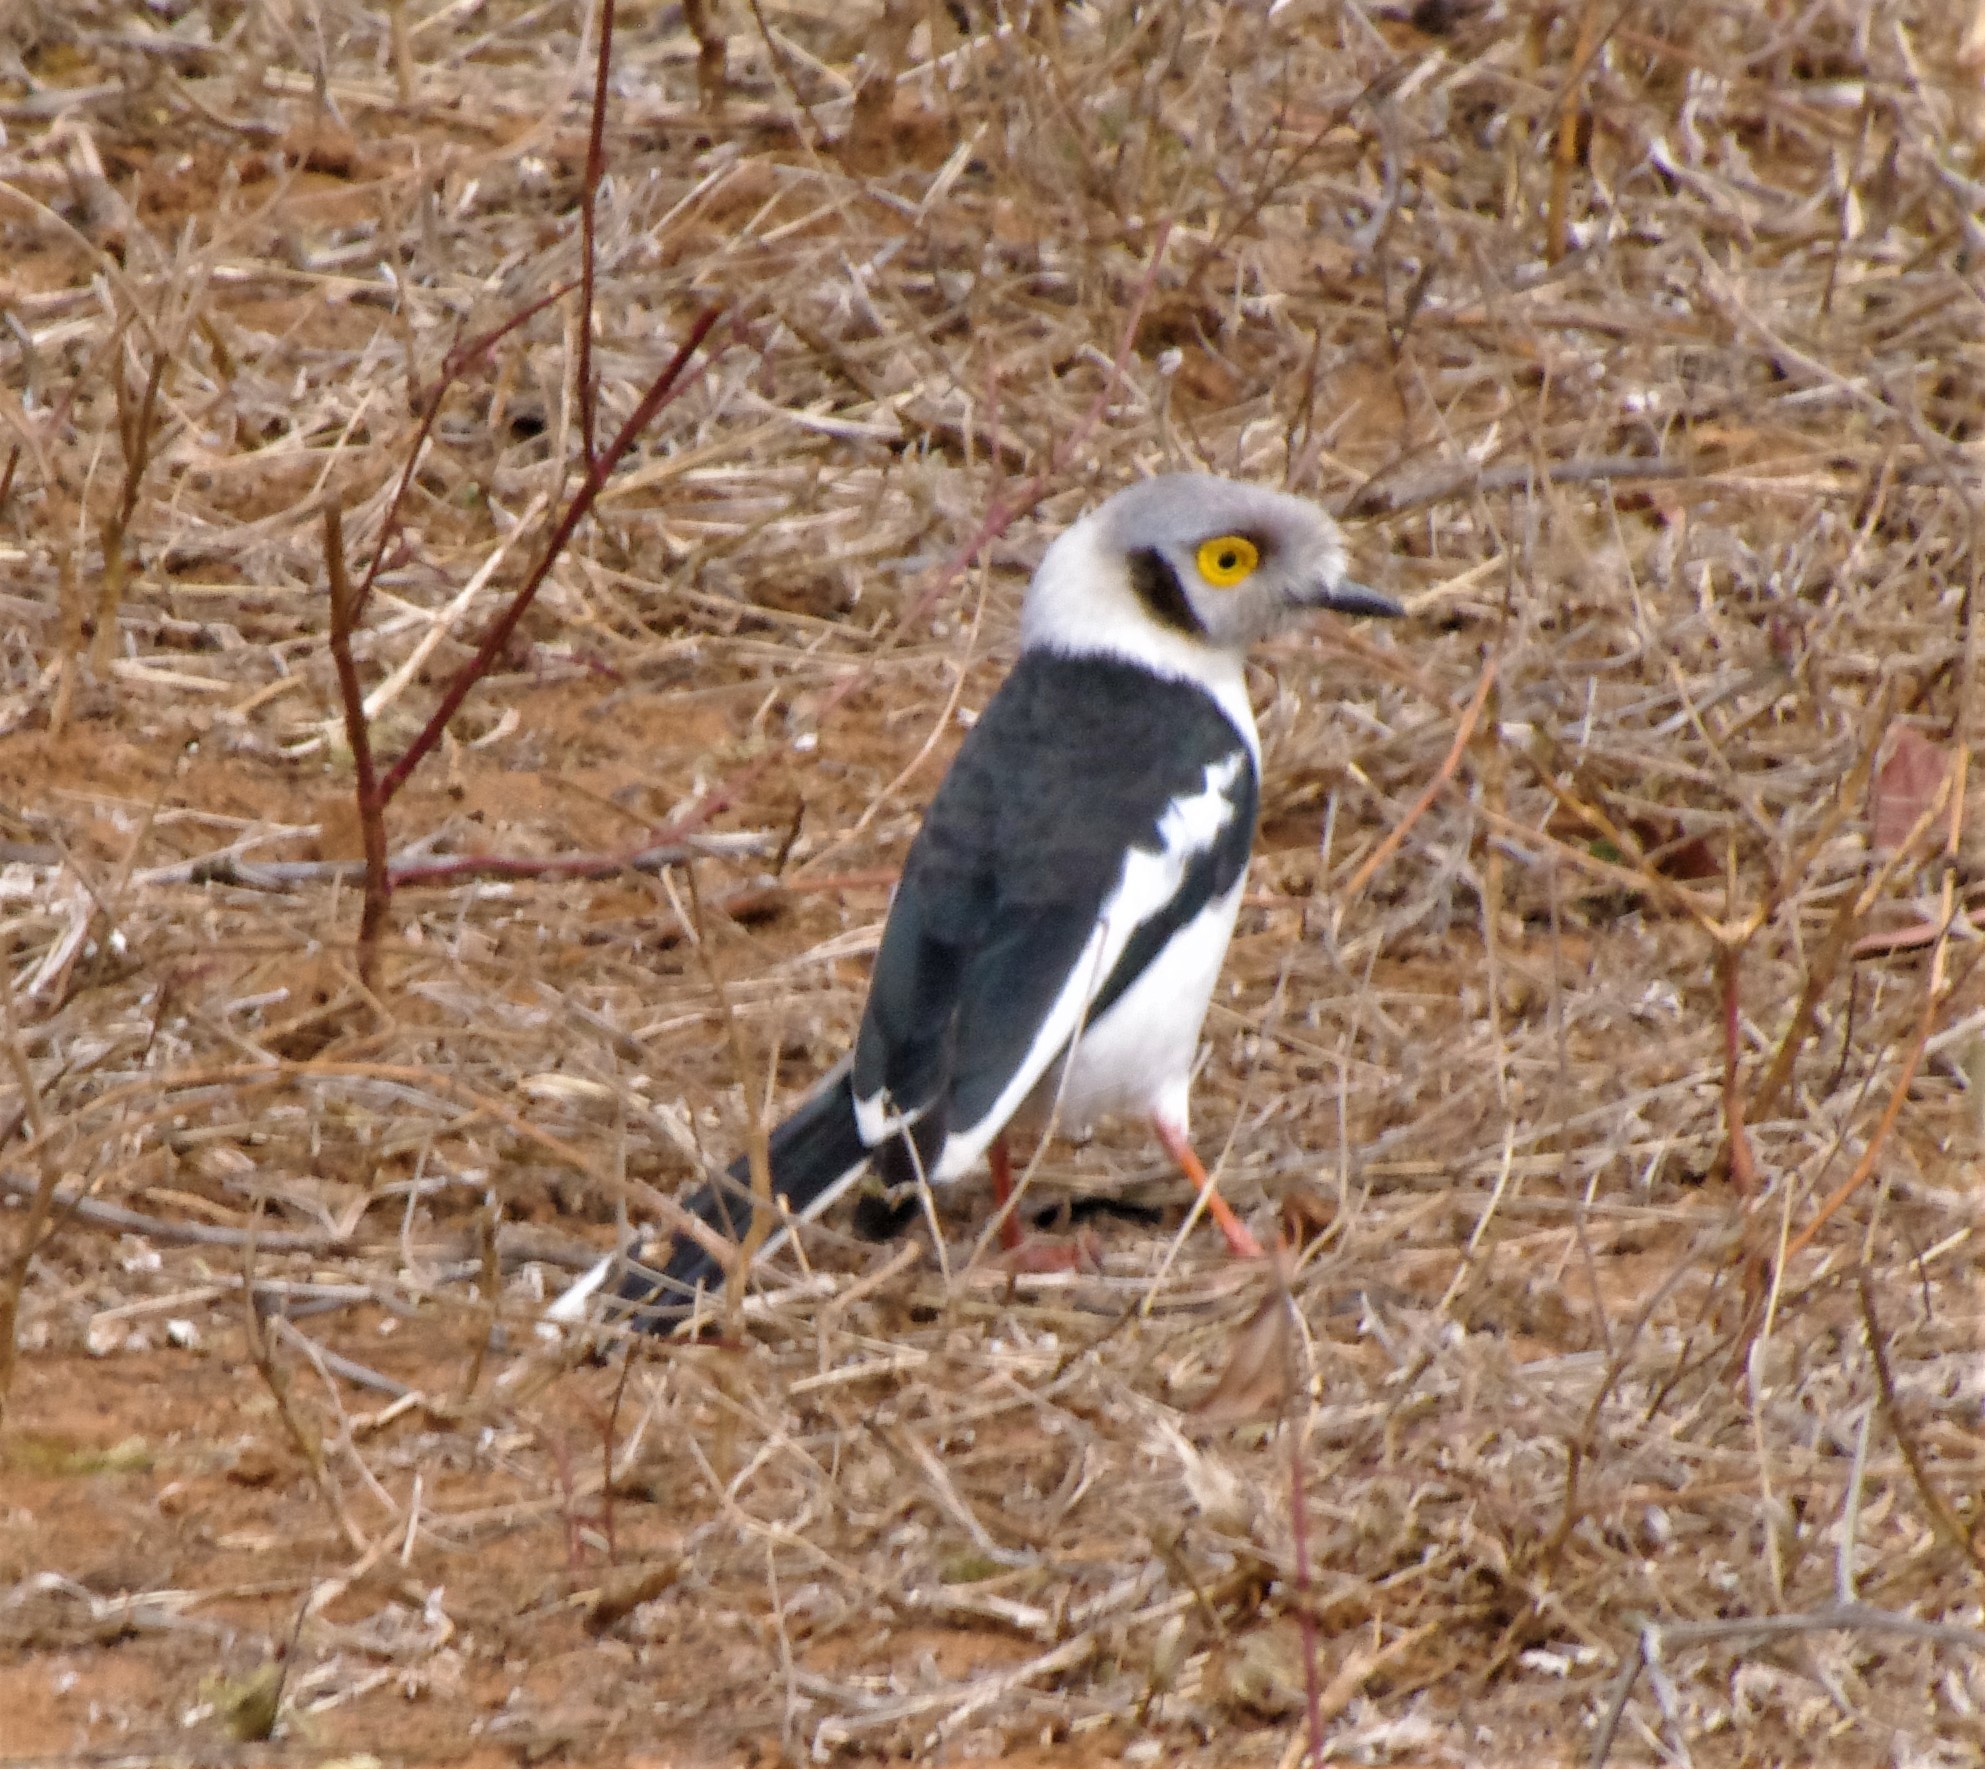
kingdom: Animalia
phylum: Chordata
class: Aves
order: Passeriformes
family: Prionopidae
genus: Prionops
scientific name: Prionops plumatus
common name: White-crested helmetshrike
